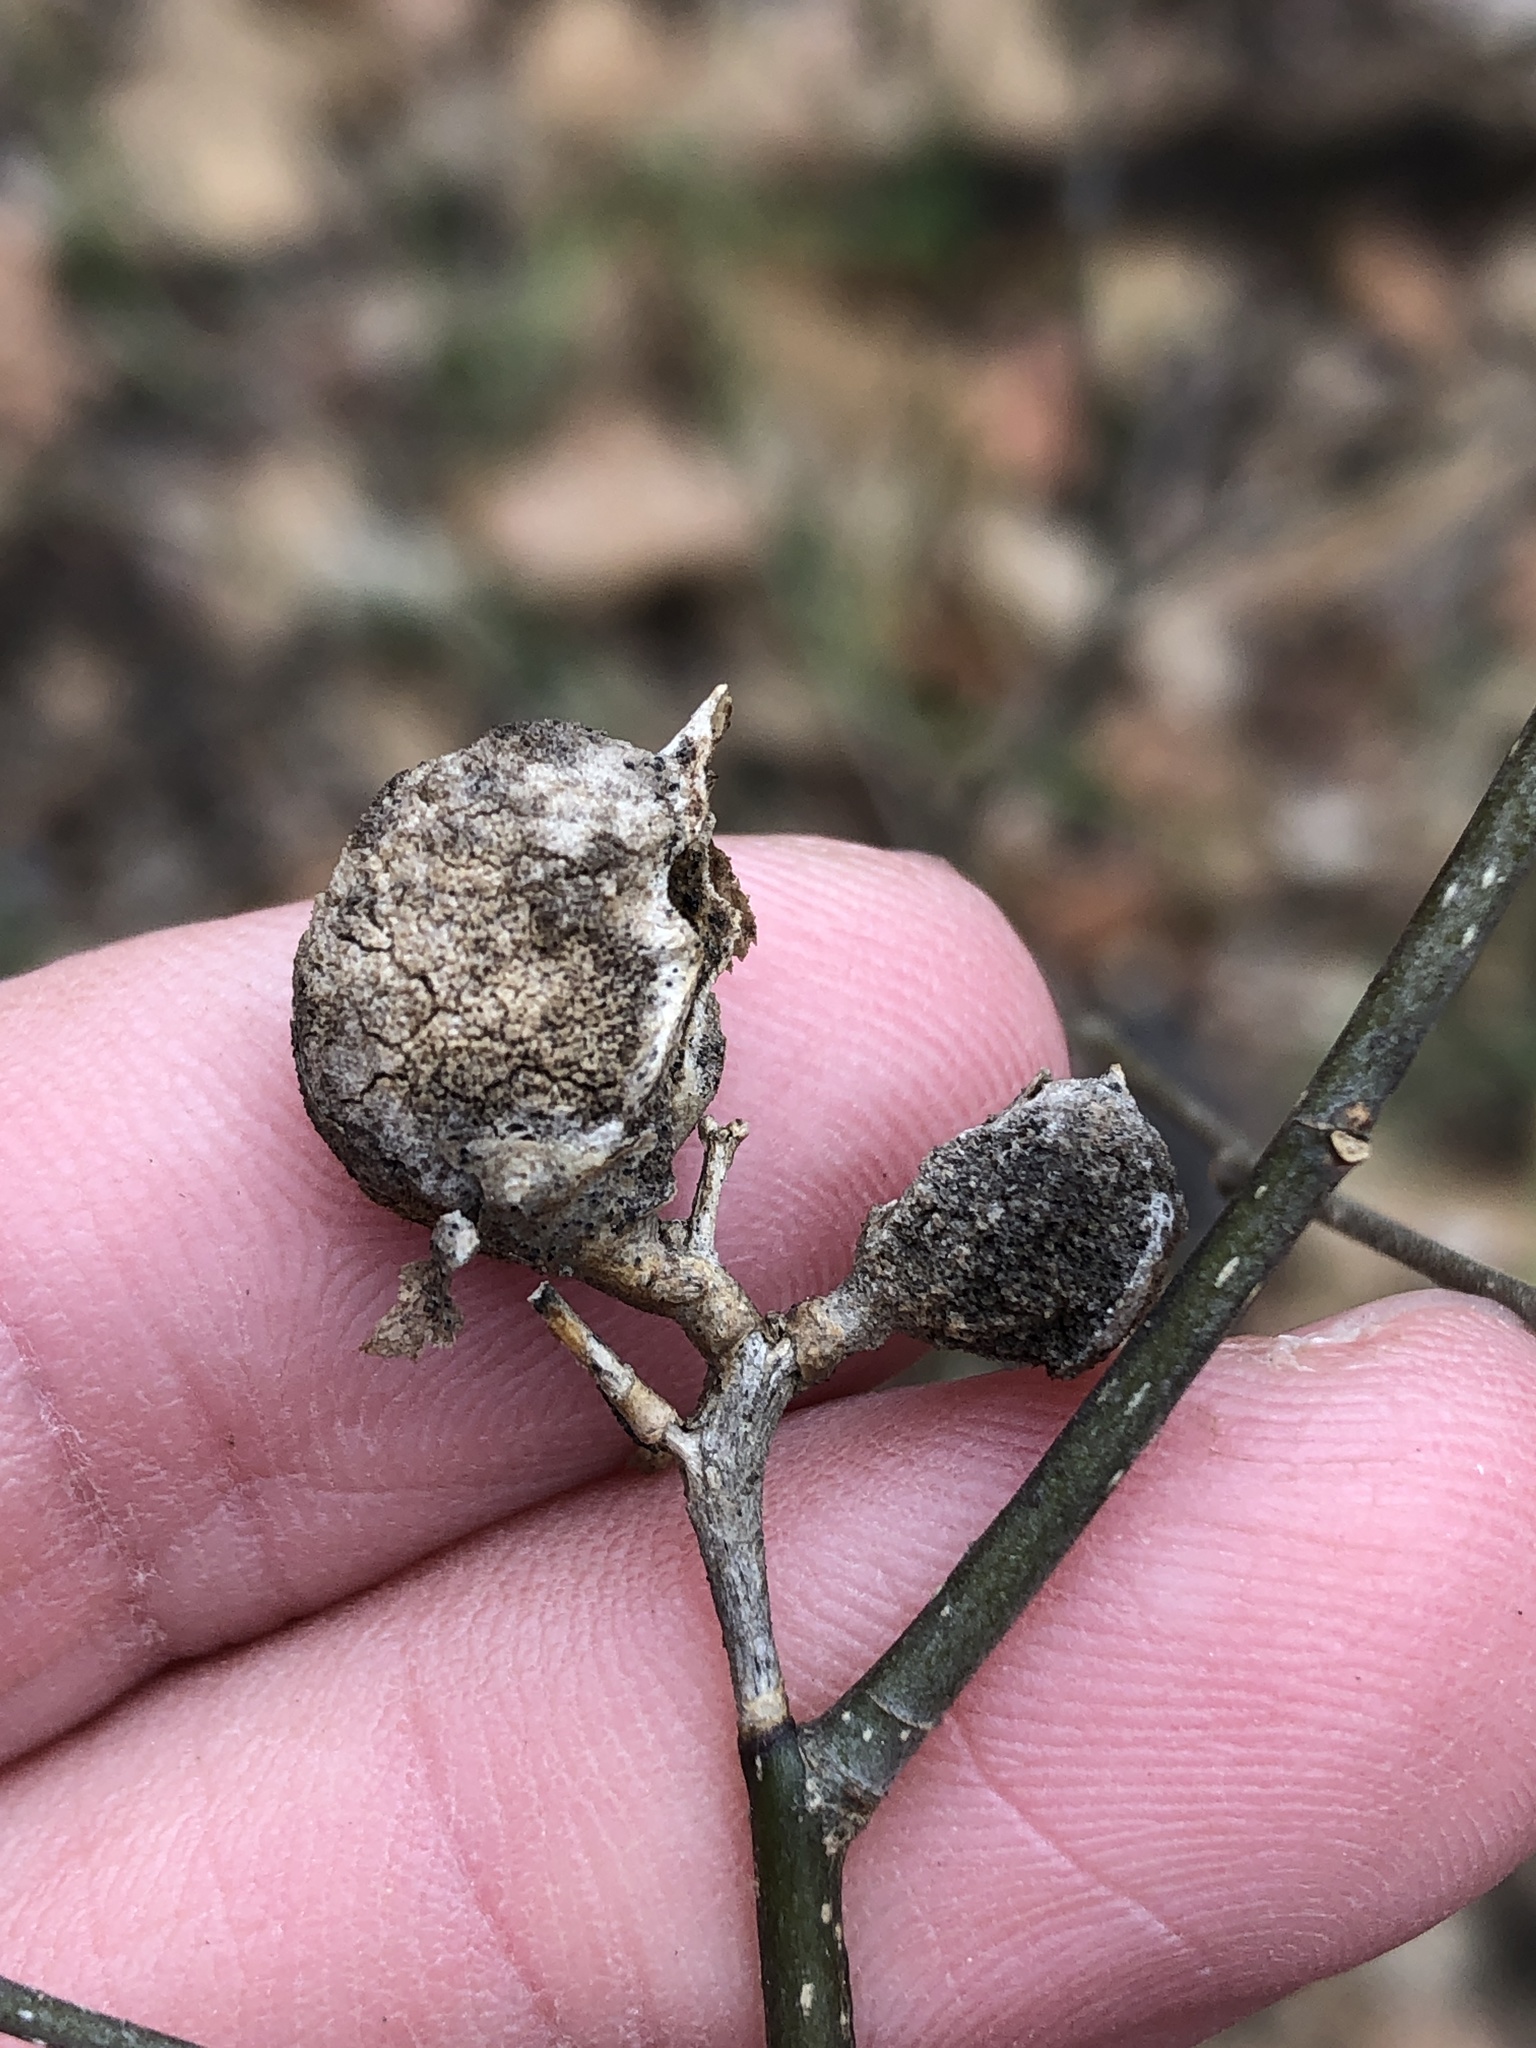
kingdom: Animalia
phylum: Arthropoda
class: Insecta
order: Hemiptera
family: Aphalaridae
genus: Pachypsylla
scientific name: Pachypsylla venusta
